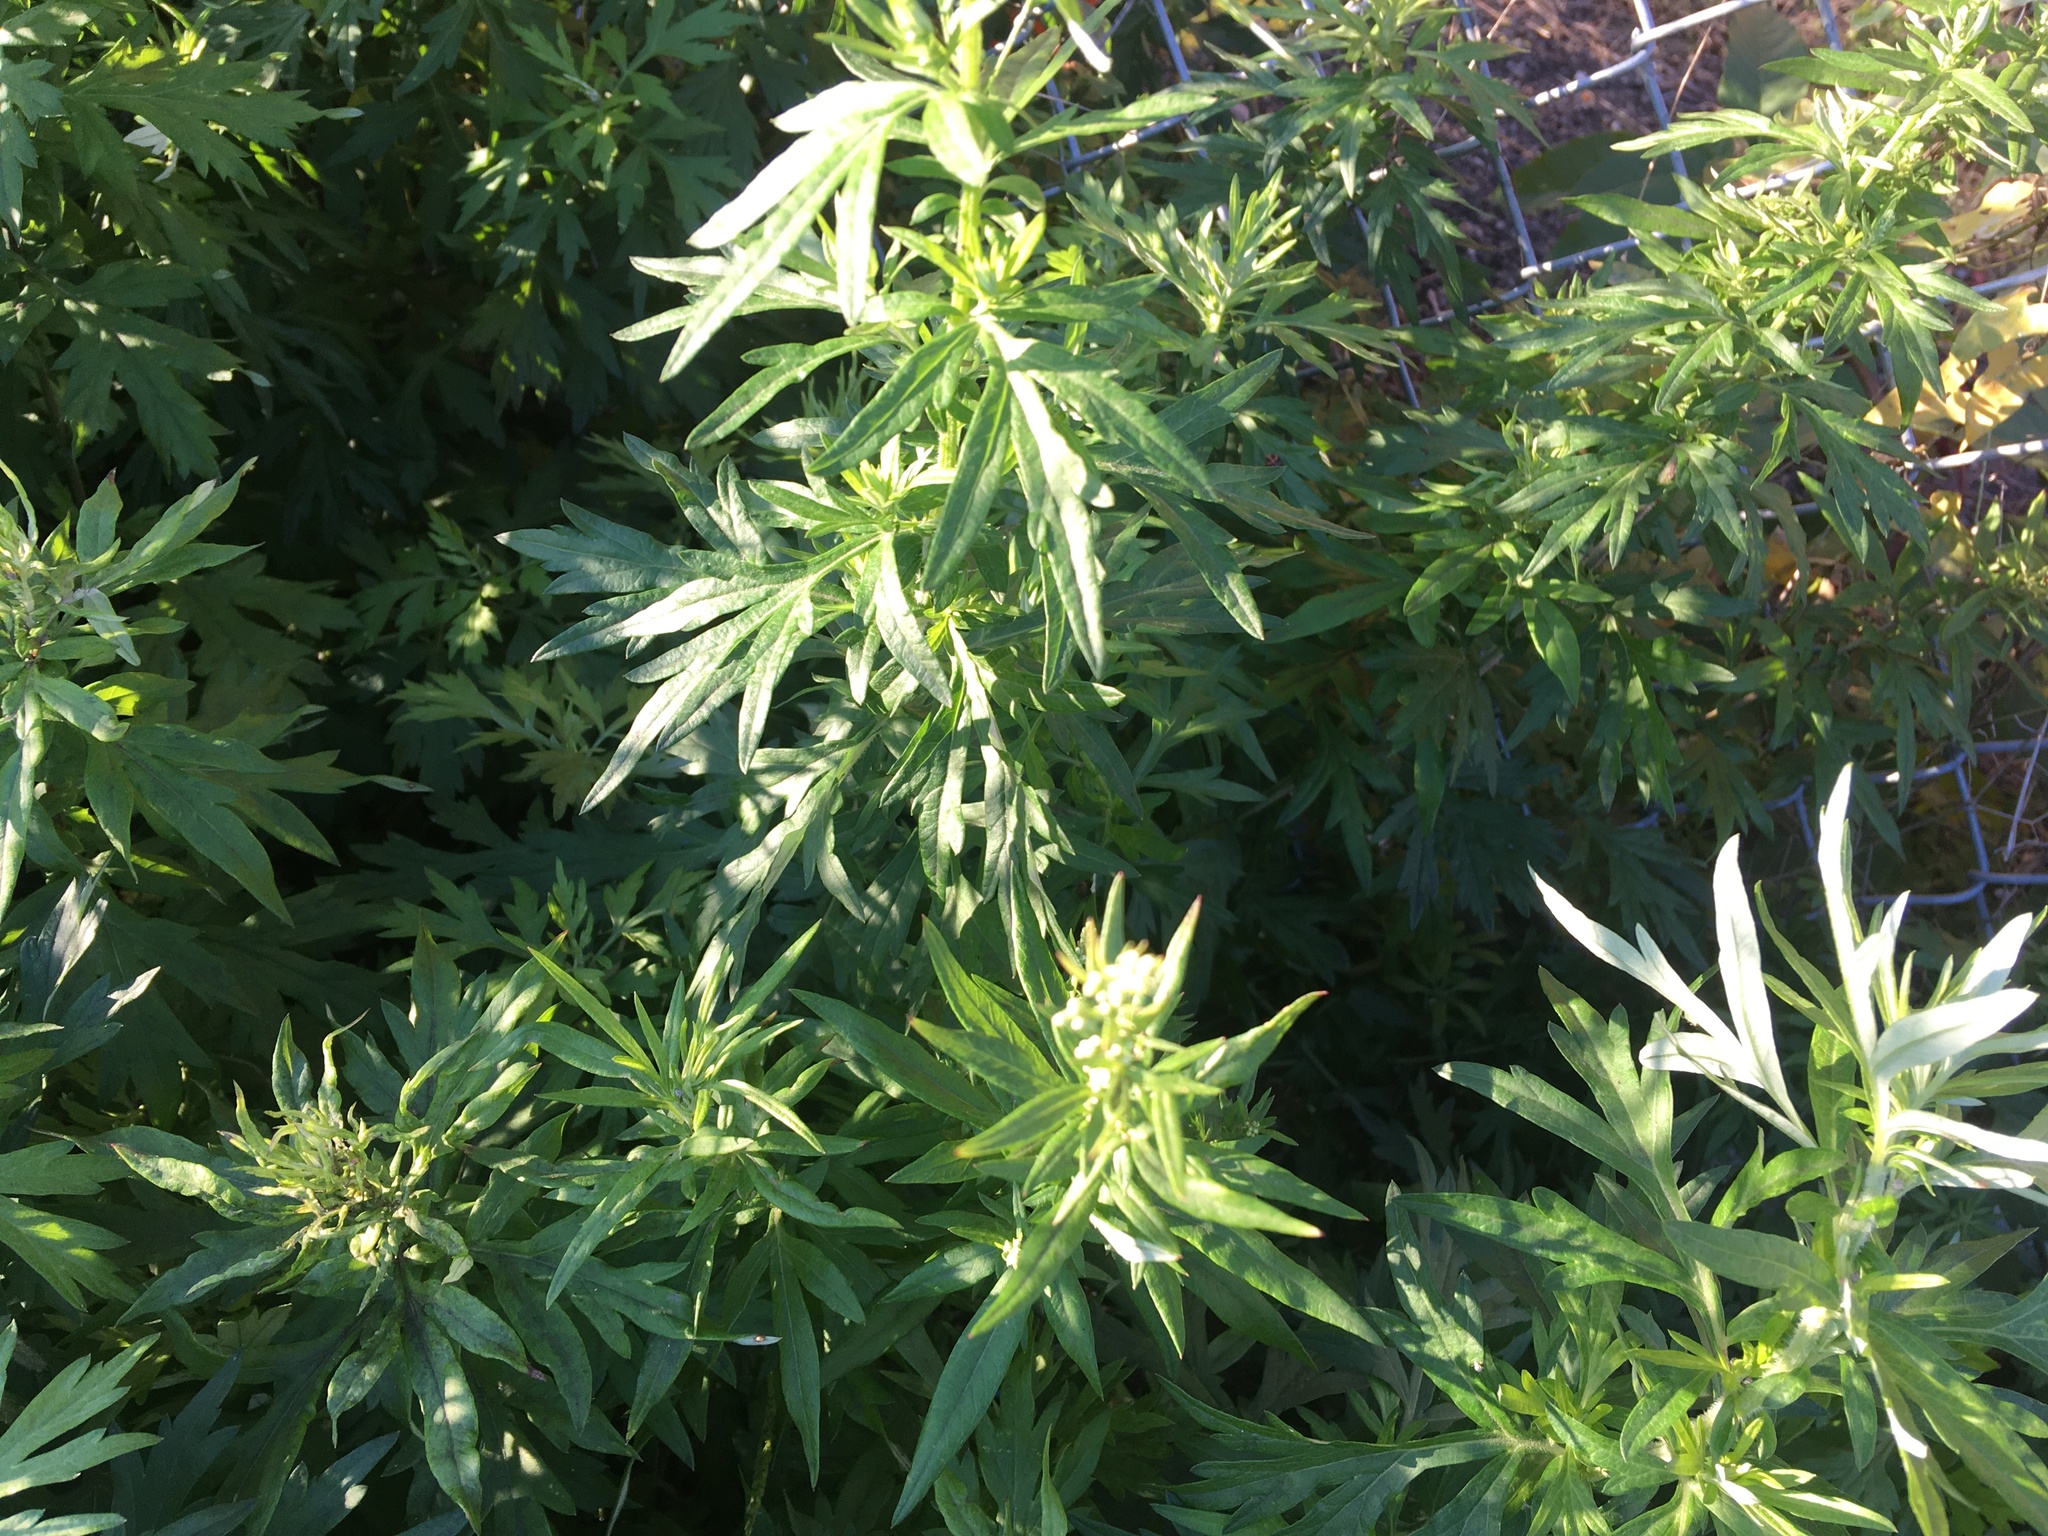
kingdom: Plantae
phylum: Tracheophyta
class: Magnoliopsida
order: Asterales
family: Asteraceae
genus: Artemisia
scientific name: Artemisia vulgaris
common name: Mugwort
